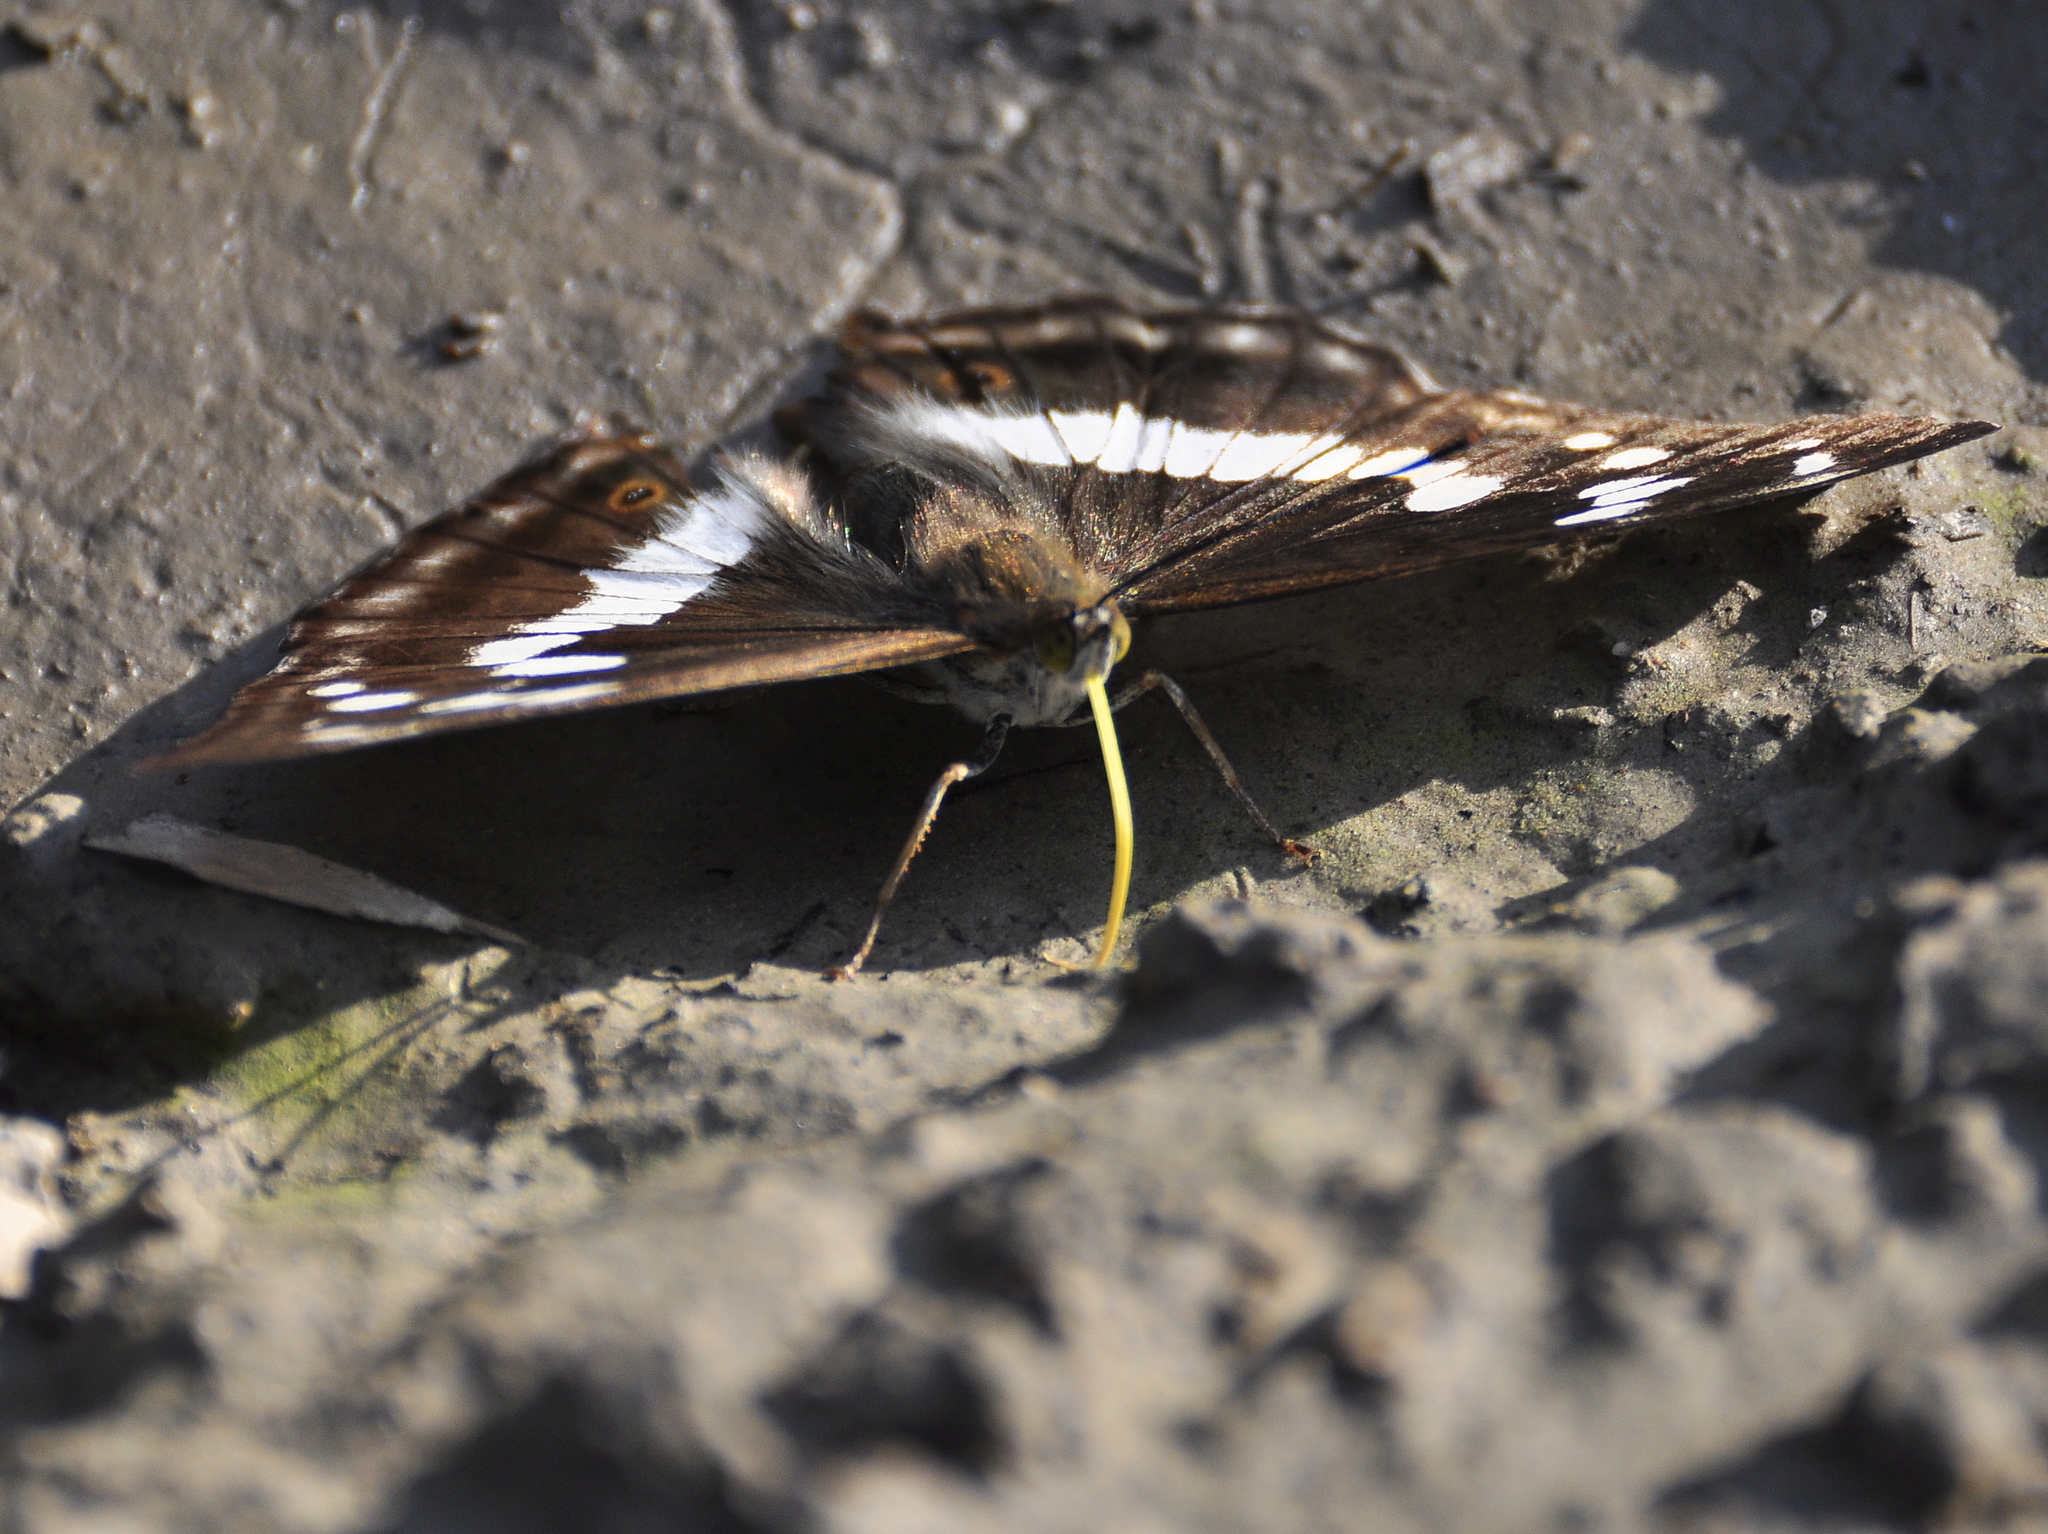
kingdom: Animalia
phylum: Arthropoda
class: Insecta
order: Lepidoptera
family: Nymphalidae
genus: Apatura
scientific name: Apatura iris
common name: Purple emperor
